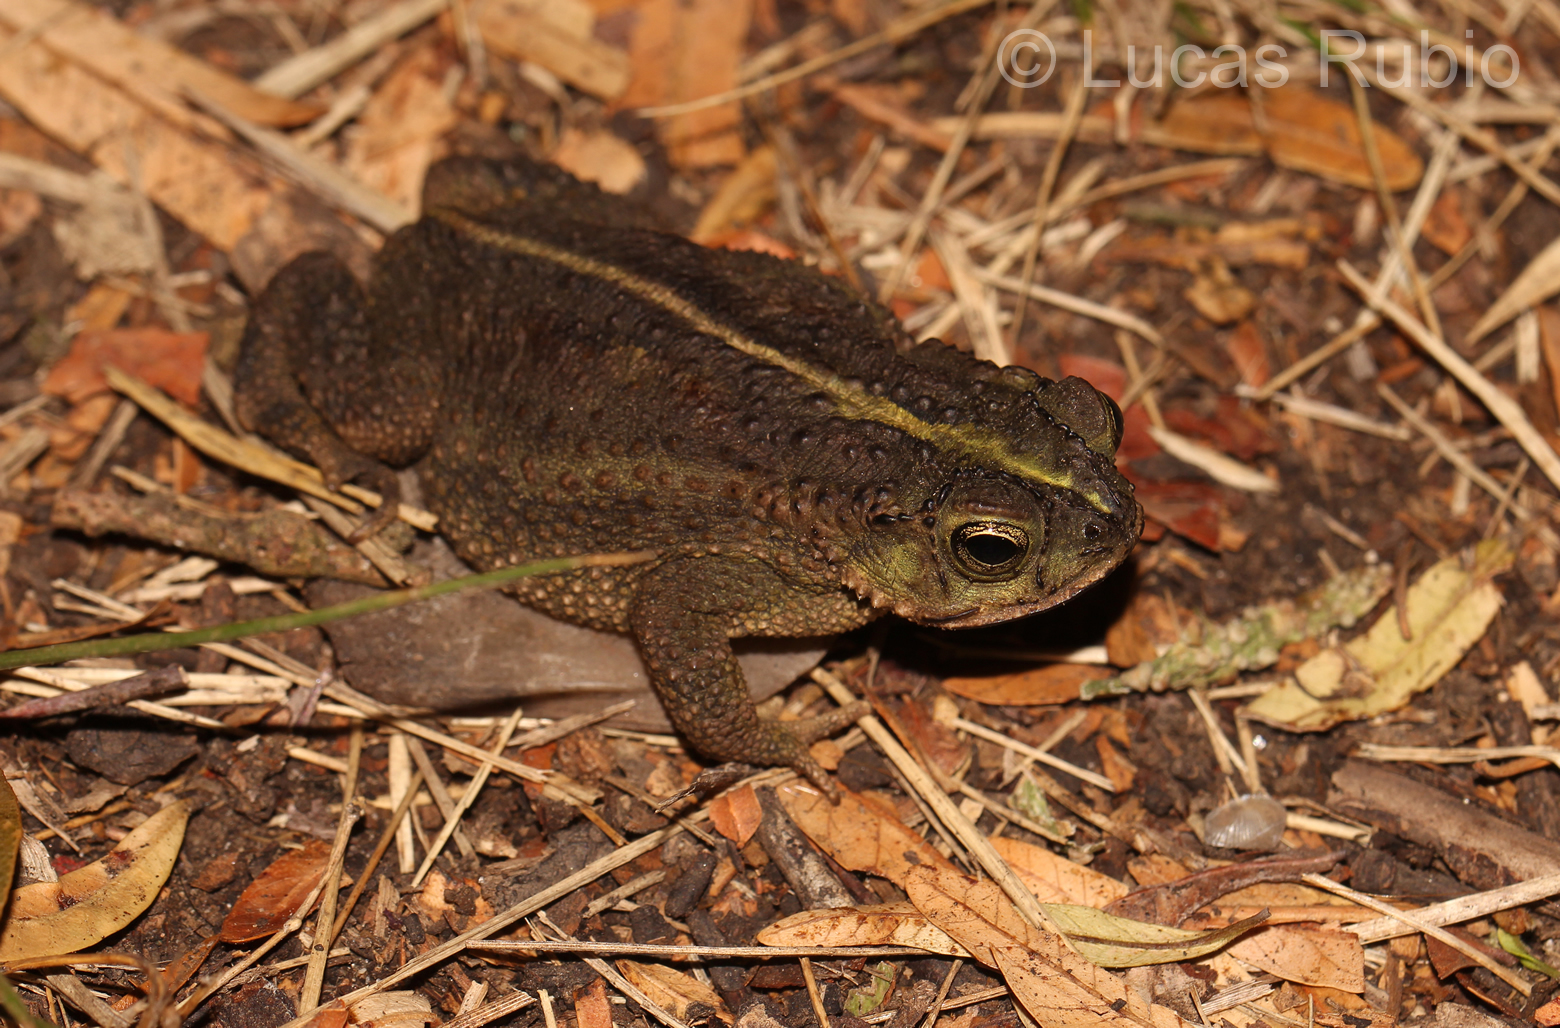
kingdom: Animalia
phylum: Chordata
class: Amphibia
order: Anura
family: Bufonidae
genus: Rhinella
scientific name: Rhinella dorbignyi
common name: D´orbigny’s toad
